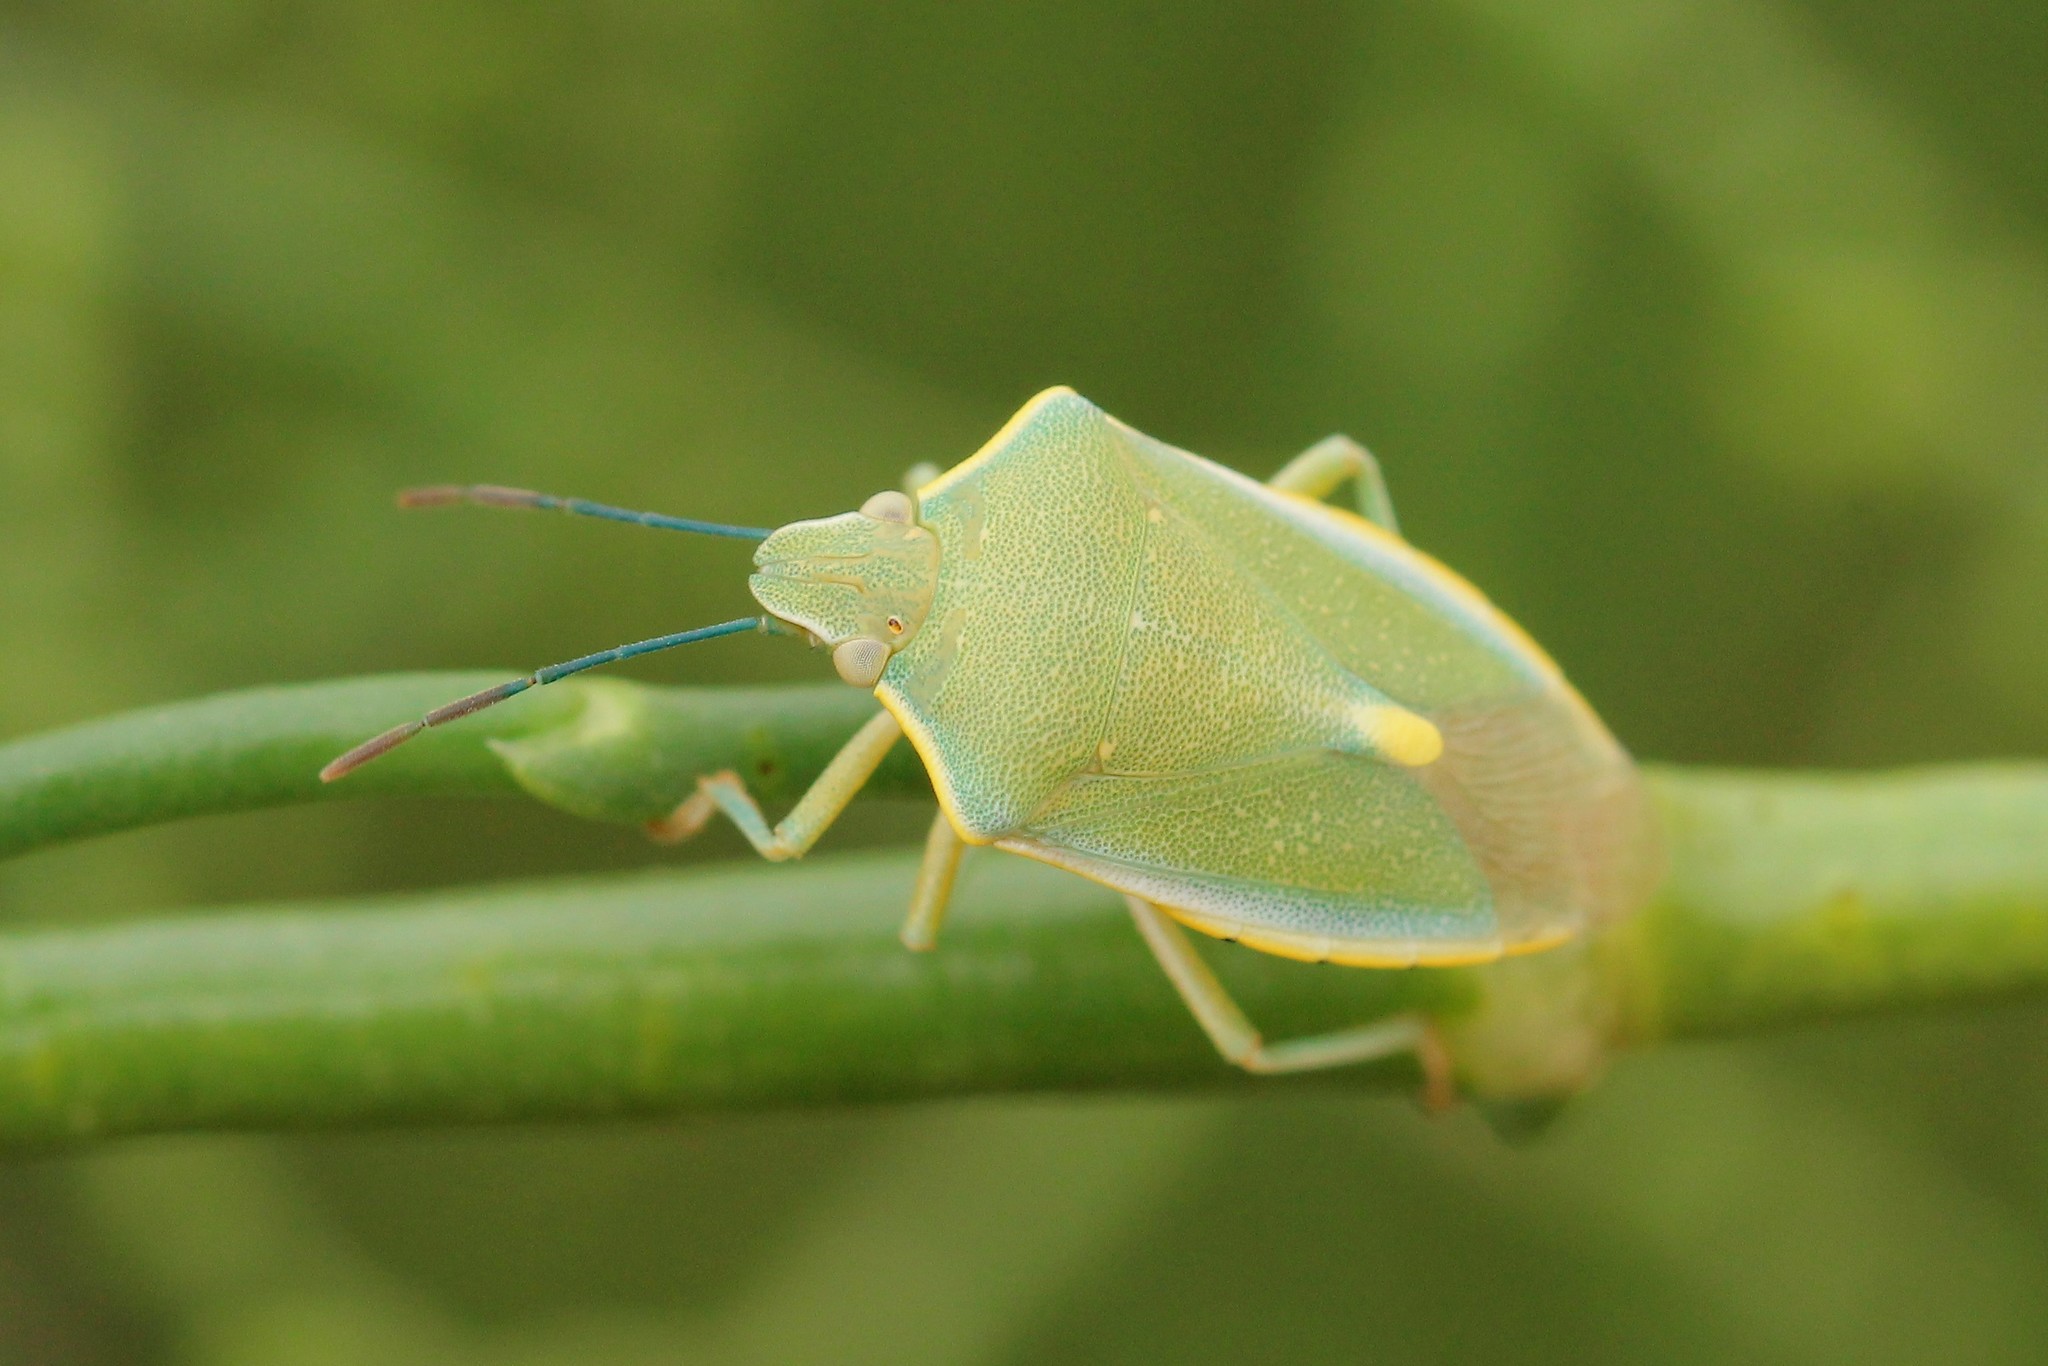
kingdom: Animalia
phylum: Arthropoda
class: Insecta
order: Hemiptera
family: Pentatomidae
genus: Brachynema
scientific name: Brachynema germarii
